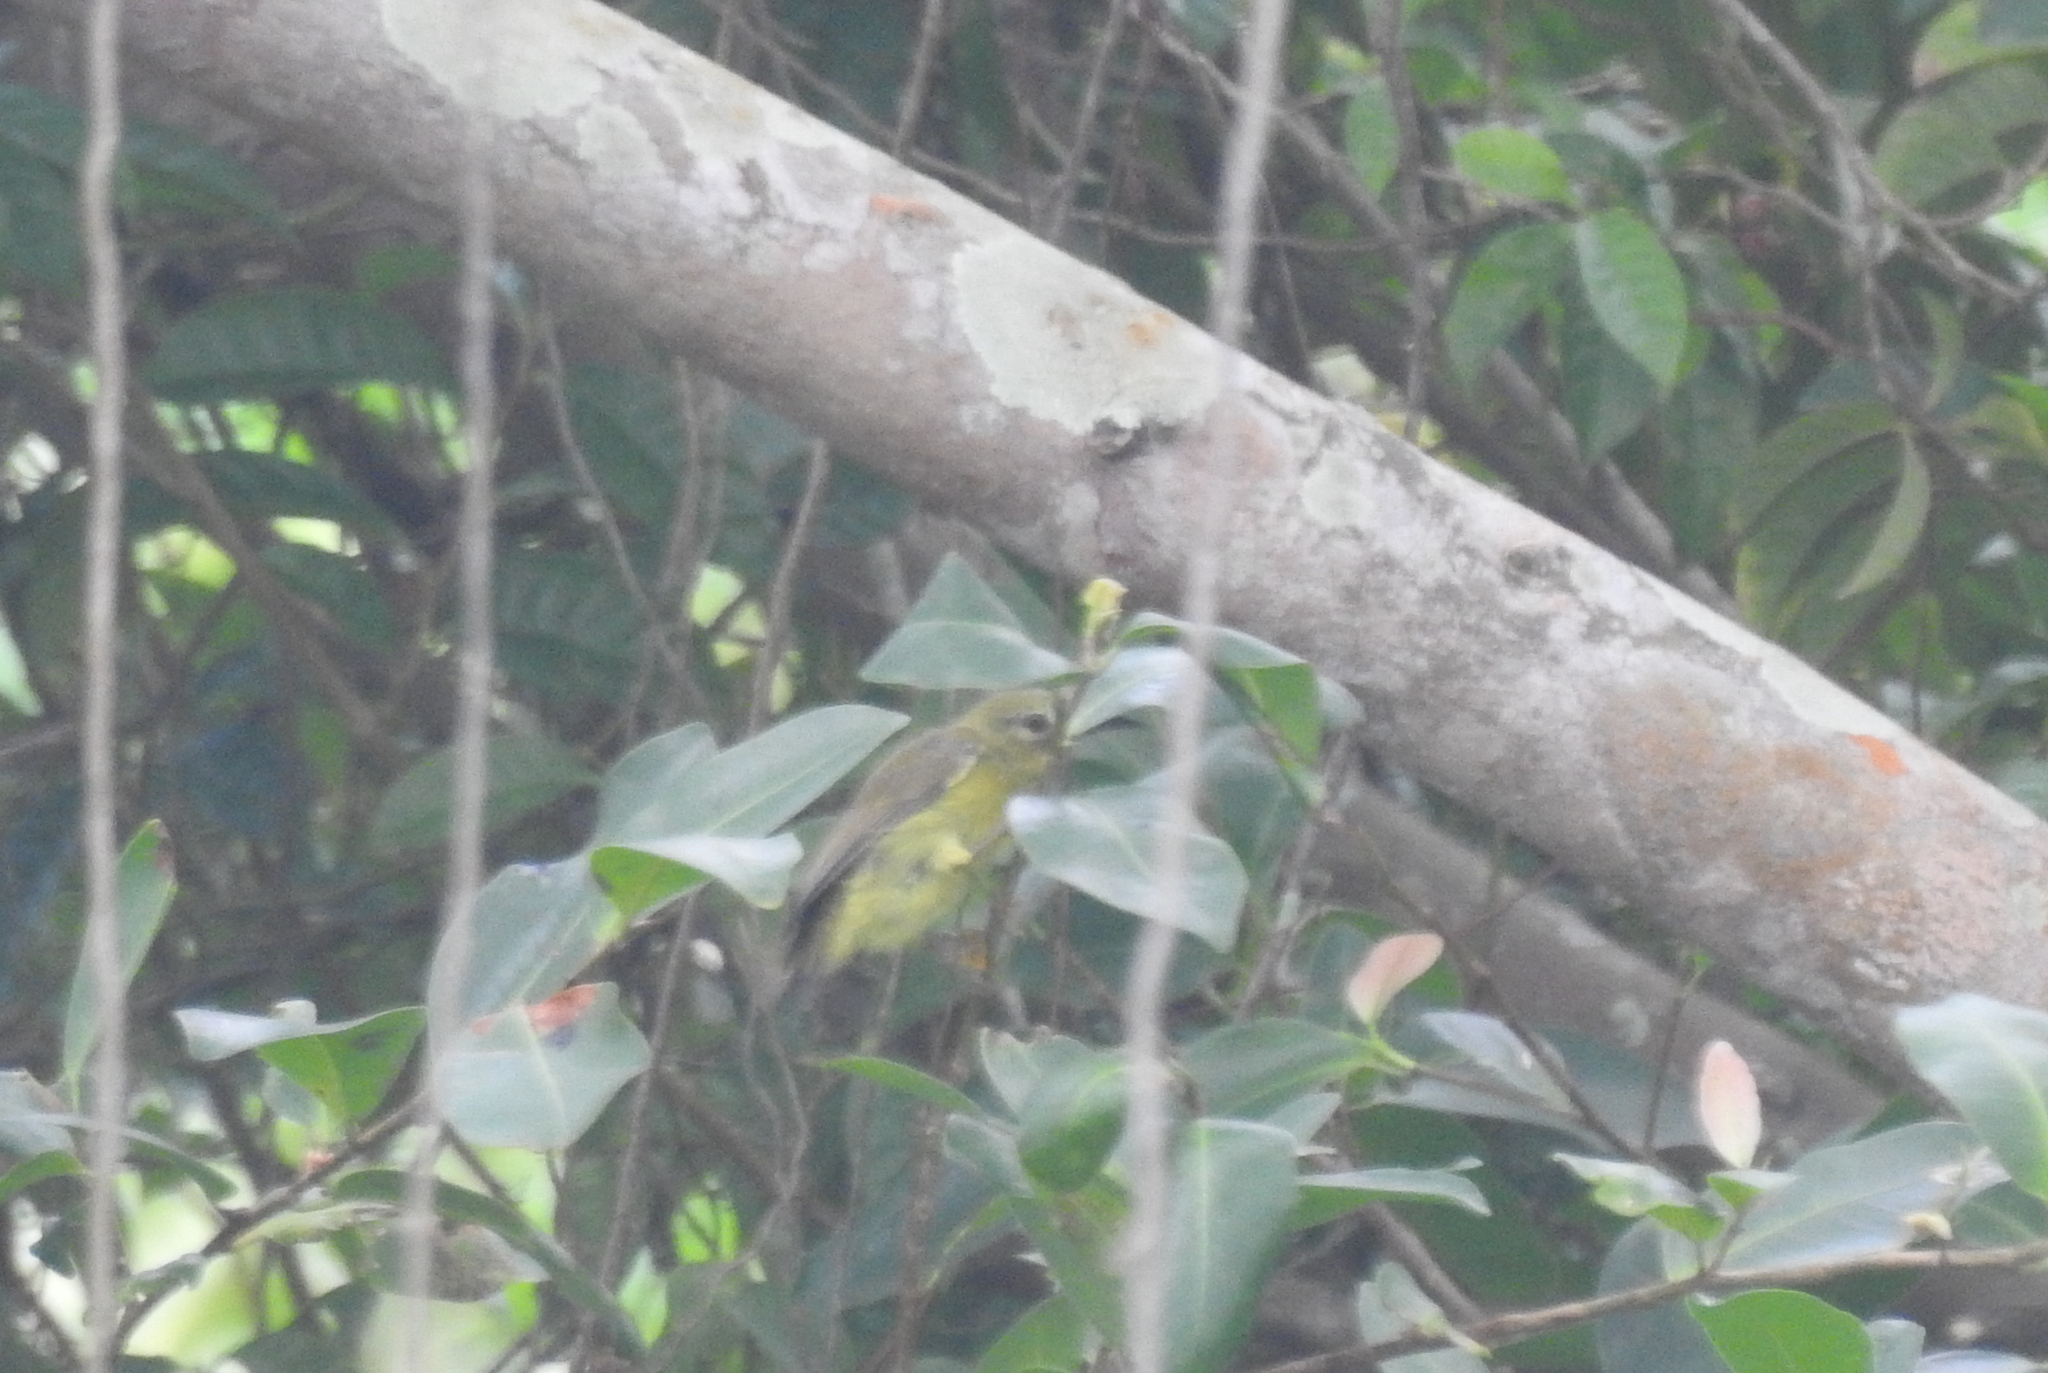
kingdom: Animalia
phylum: Chordata
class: Aves
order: Passeriformes
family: Nectariniidae
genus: Anthreptes
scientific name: Anthreptes malacensis
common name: Brown-throated sunbird
